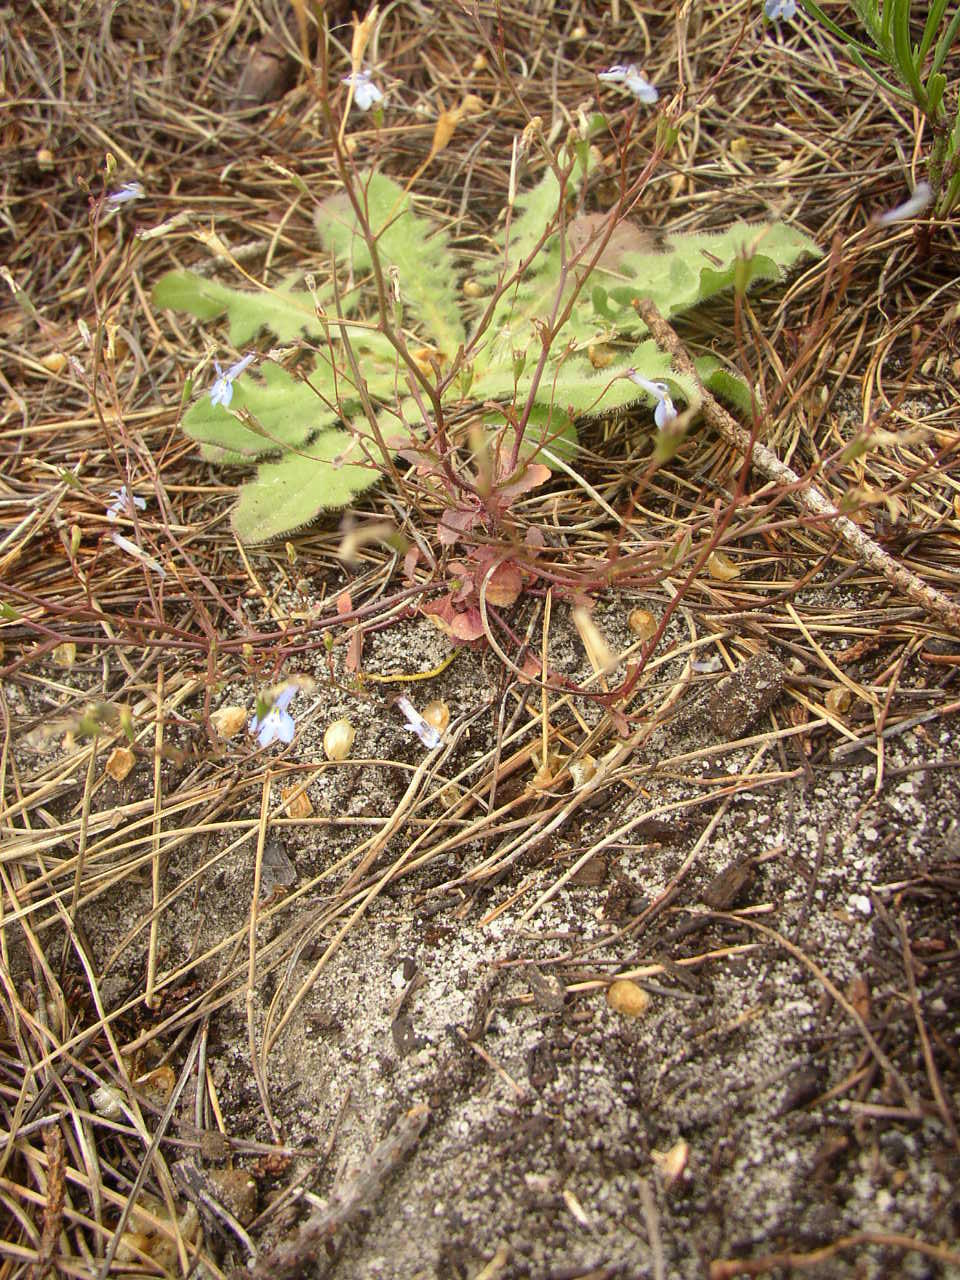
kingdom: Plantae
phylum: Tracheophyta
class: Magnoliopsida
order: Asterales
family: Campanulaceae
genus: Lobelia
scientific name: Lobelia erinus
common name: Edging lobelia
